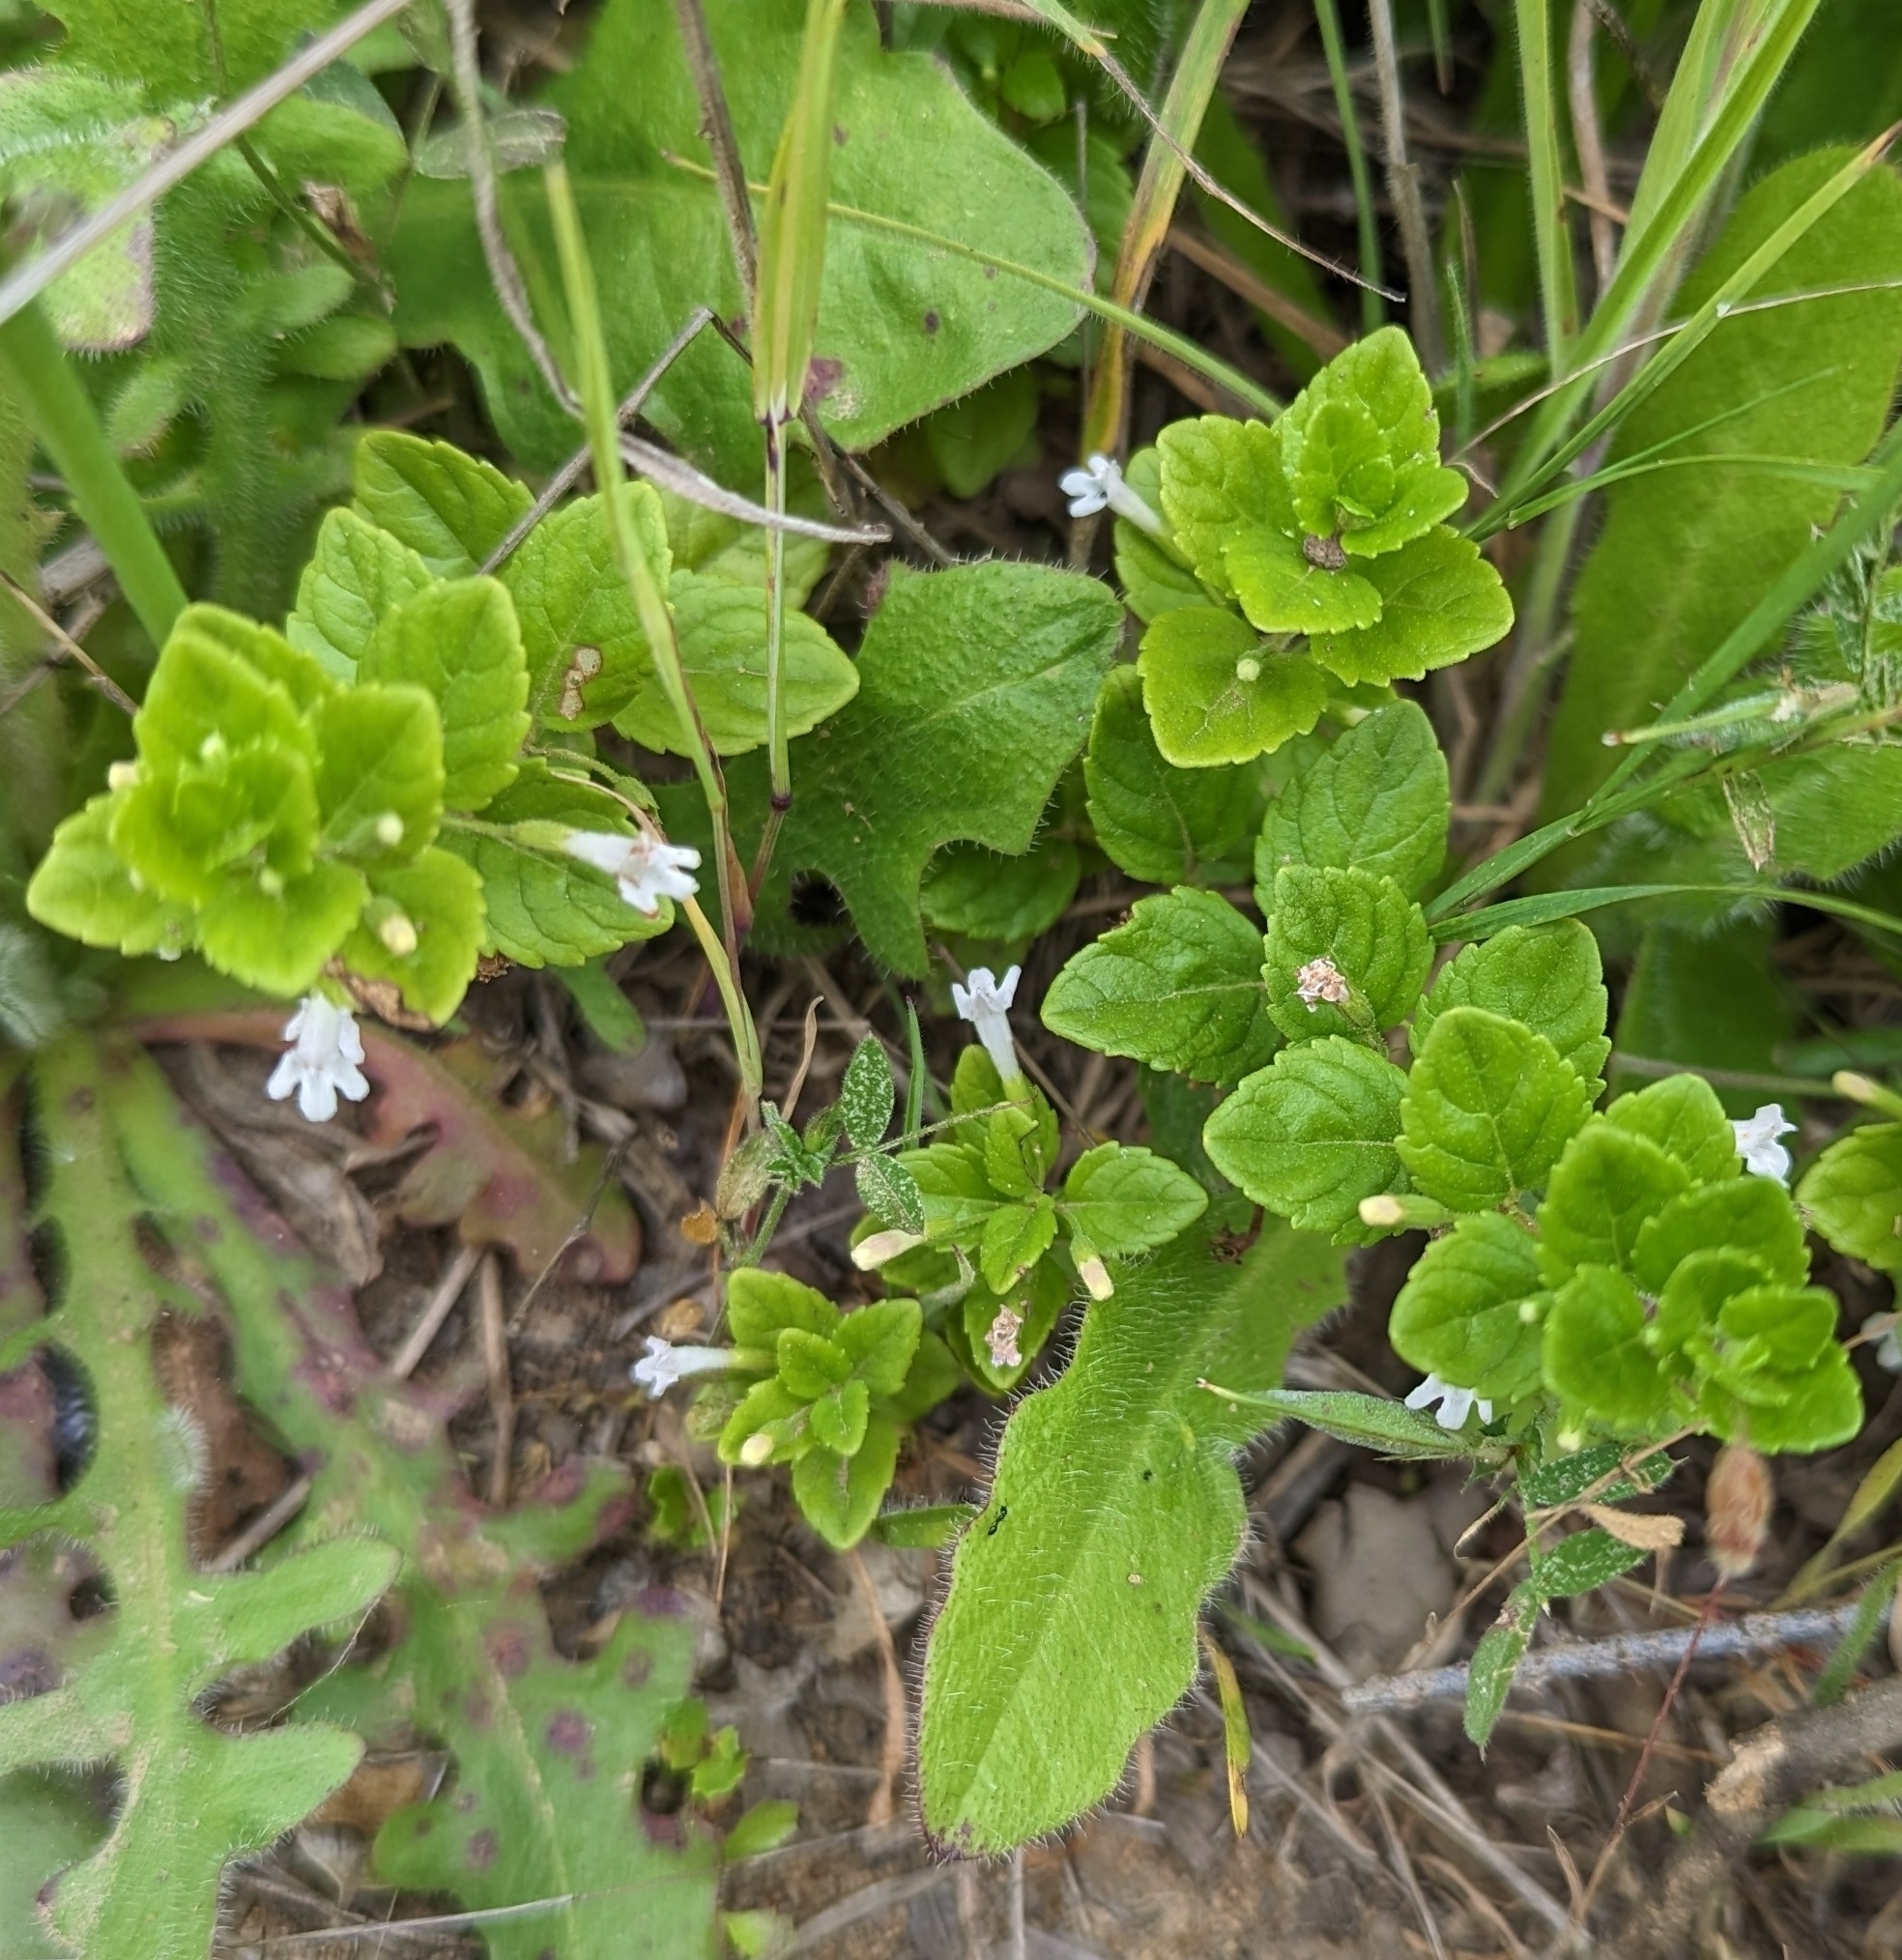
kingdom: Plantae
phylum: Tracheophyta
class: Magnoliopsida
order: Lamiales
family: Lamiaceae
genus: Micromeria
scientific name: Micromeria douglasii
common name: Yerba buena
